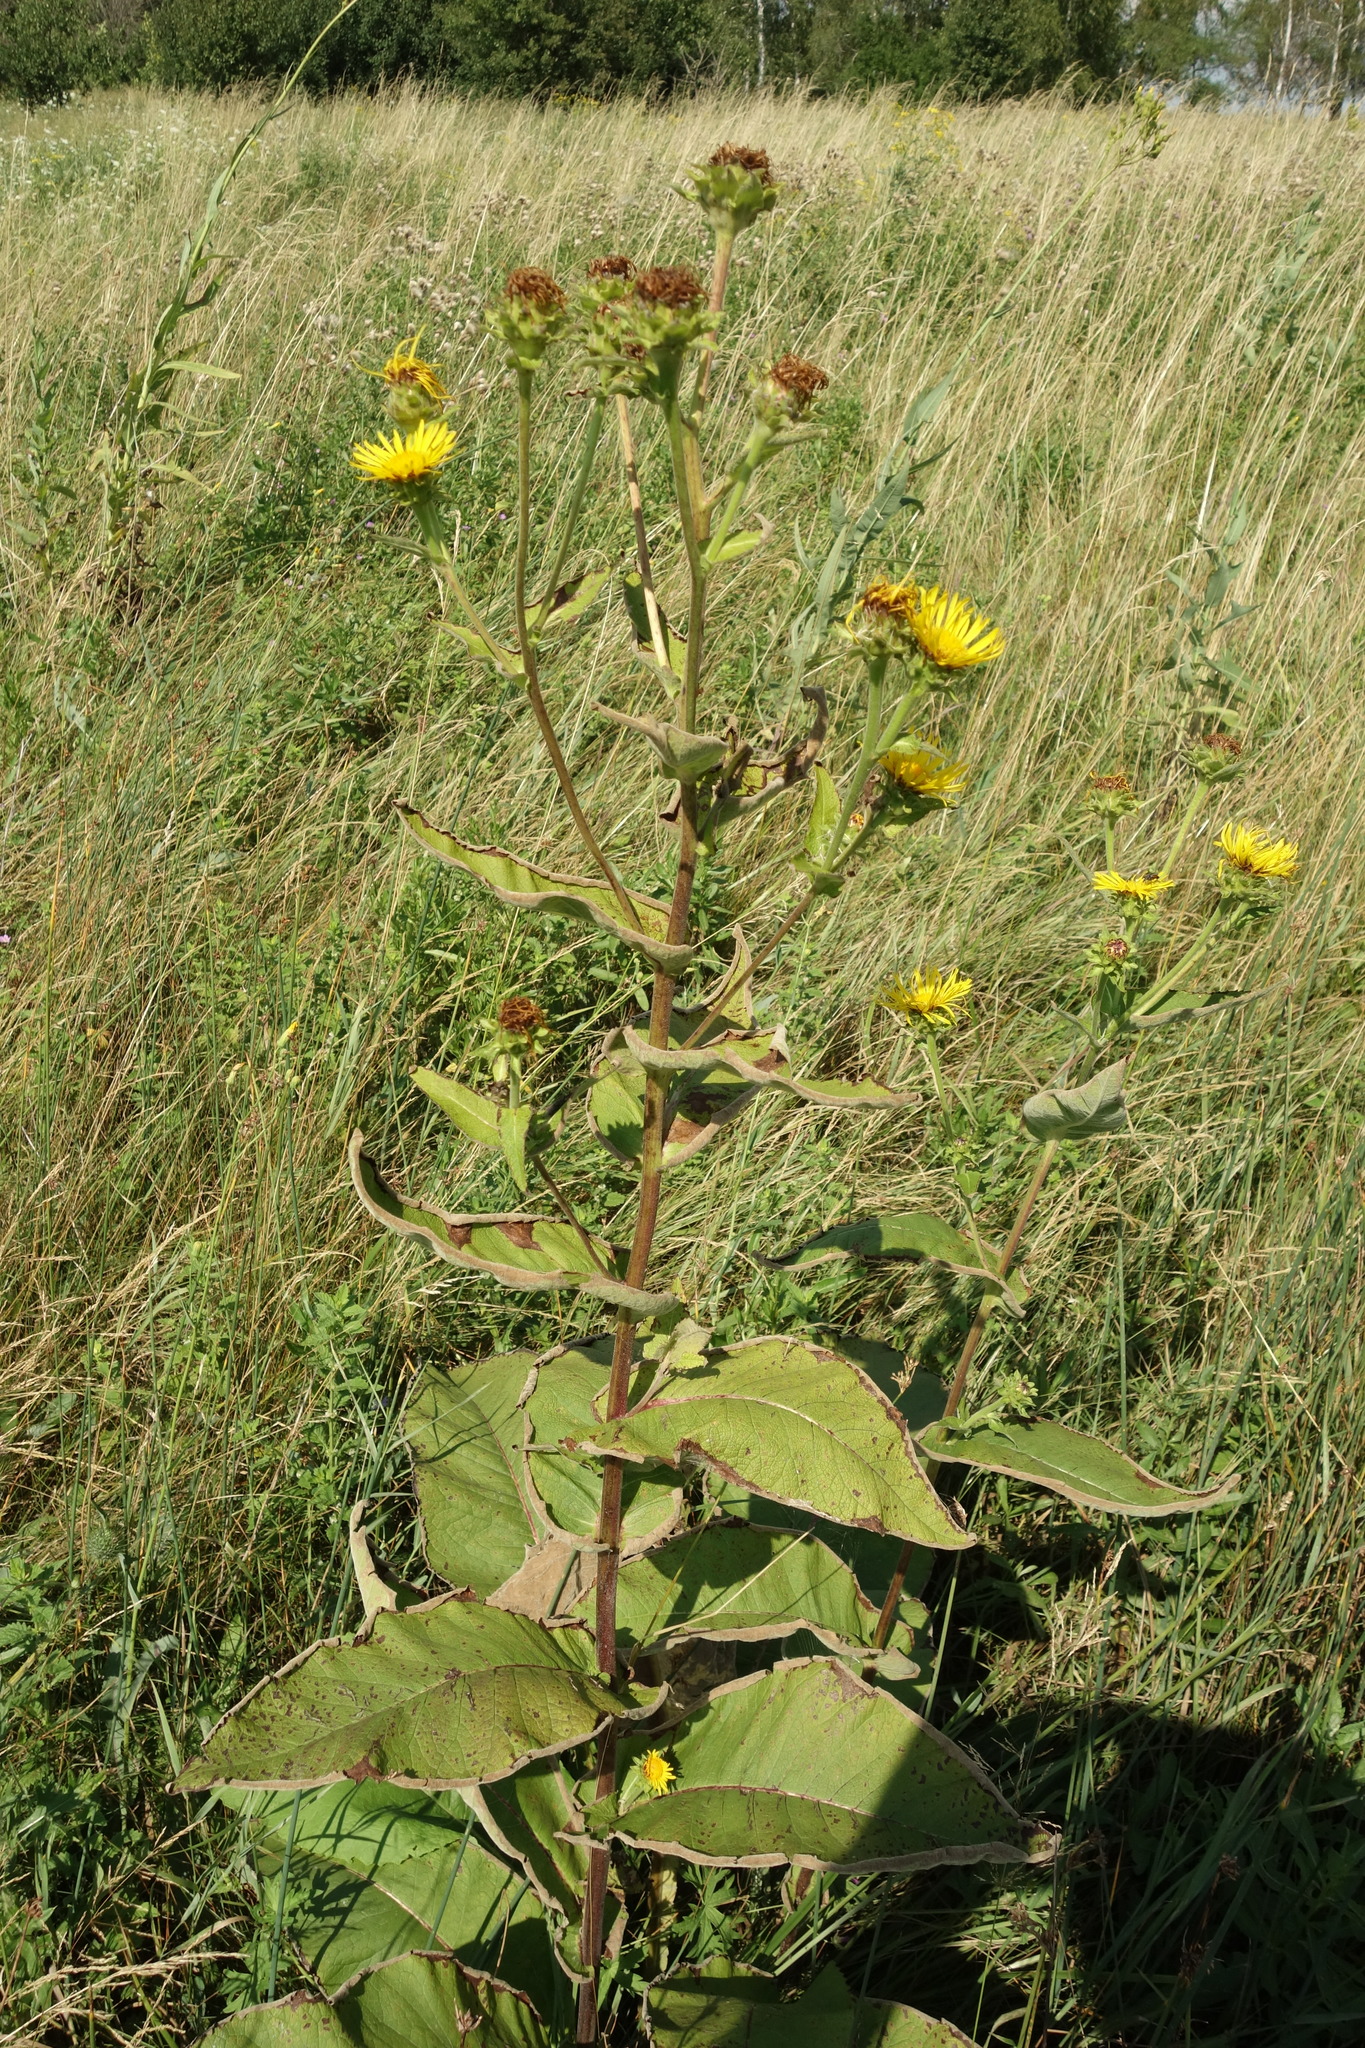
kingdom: Plantae
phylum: Tracheophyta
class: Magnoliopsida
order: Asterales
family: Asteraceae
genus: Inula
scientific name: Inula helenium
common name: Elecampane
